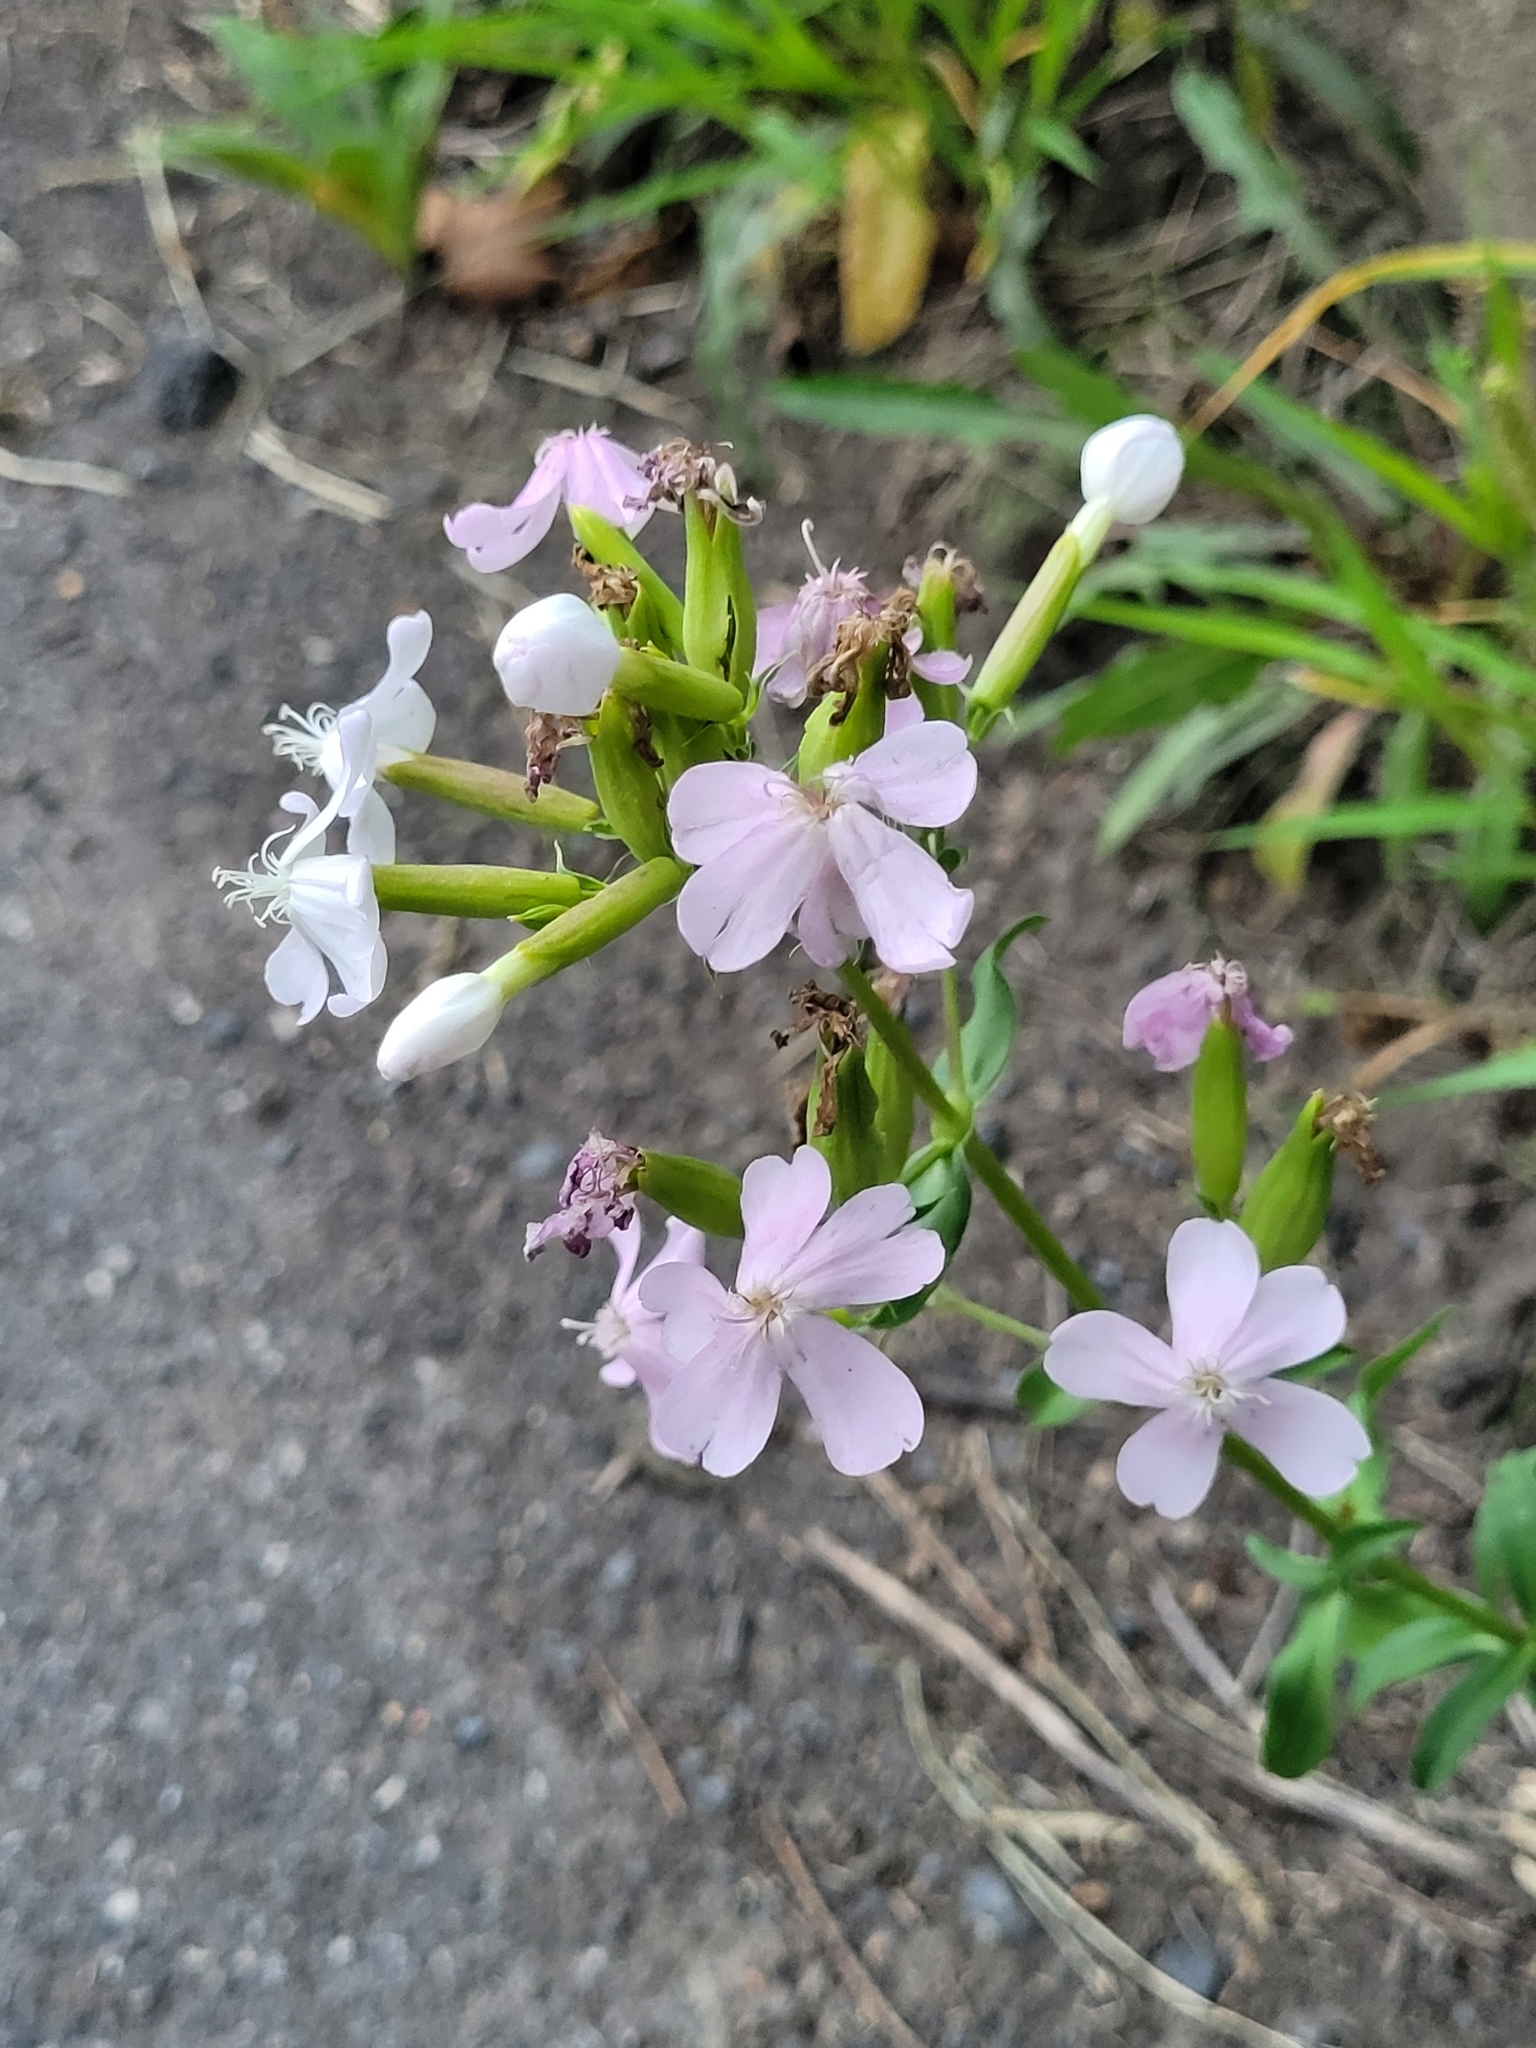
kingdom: Plantae
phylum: Tracheophyta
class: Magnoliopsida
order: Caryophyllales
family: Caryophyllaceae
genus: Saponaria
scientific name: Saponaria officinalis
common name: Soapwort
